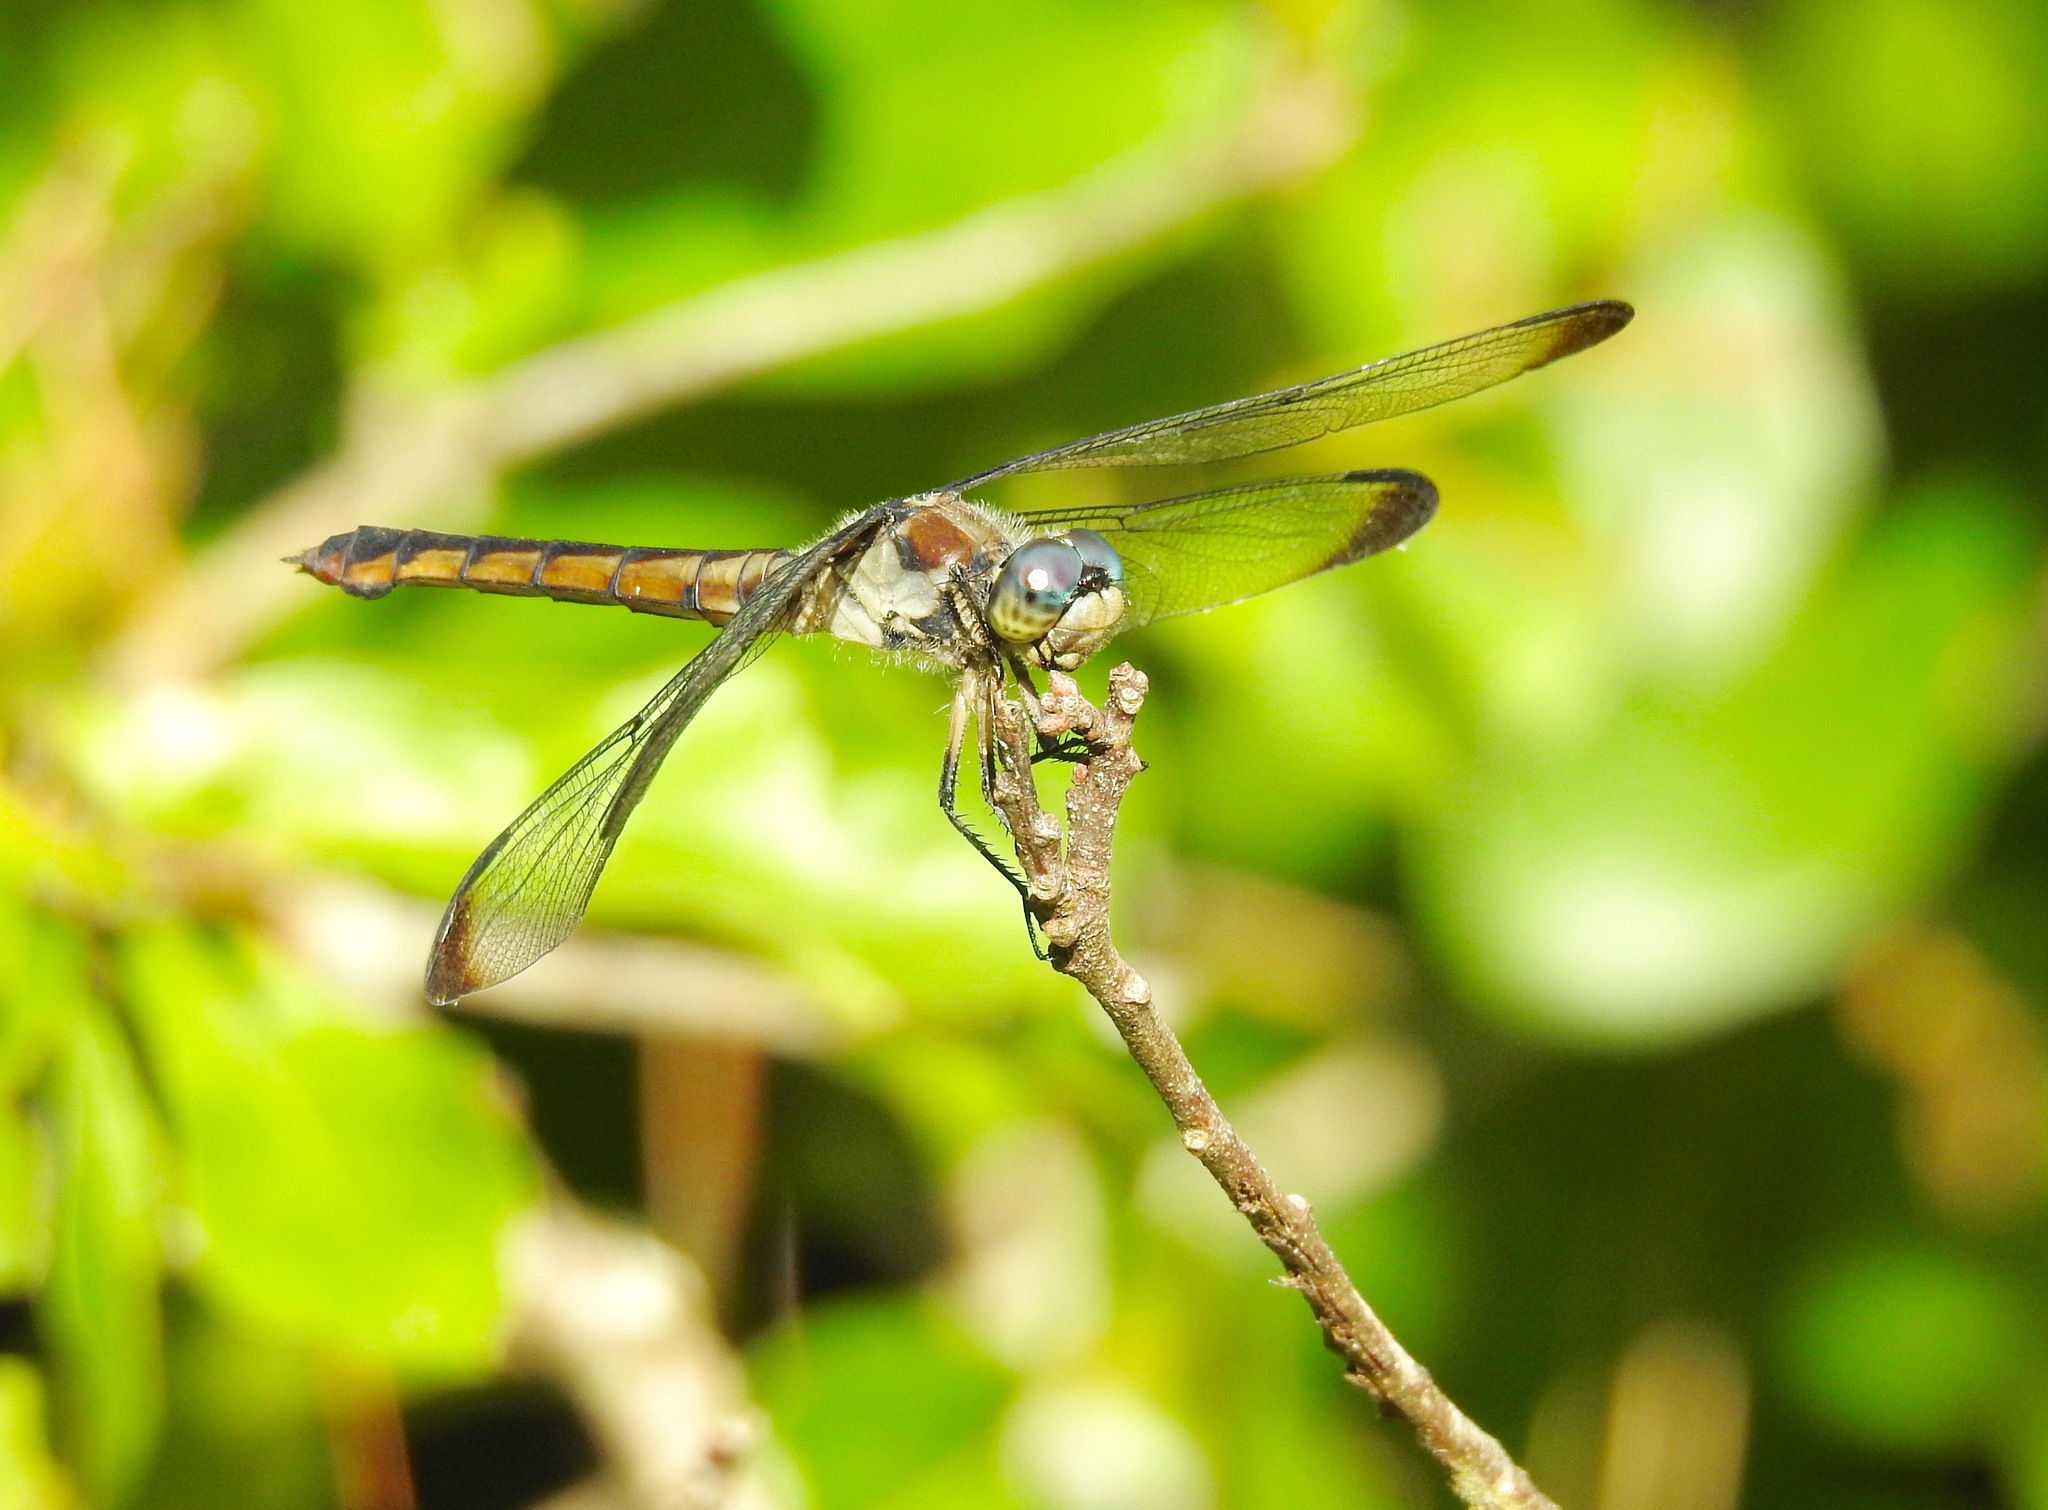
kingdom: Animalia
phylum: Arthropoda
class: Insecta
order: Odonata
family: Libellulidae
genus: Libellula
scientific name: Libellula vibrans
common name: Great blue skimmer
